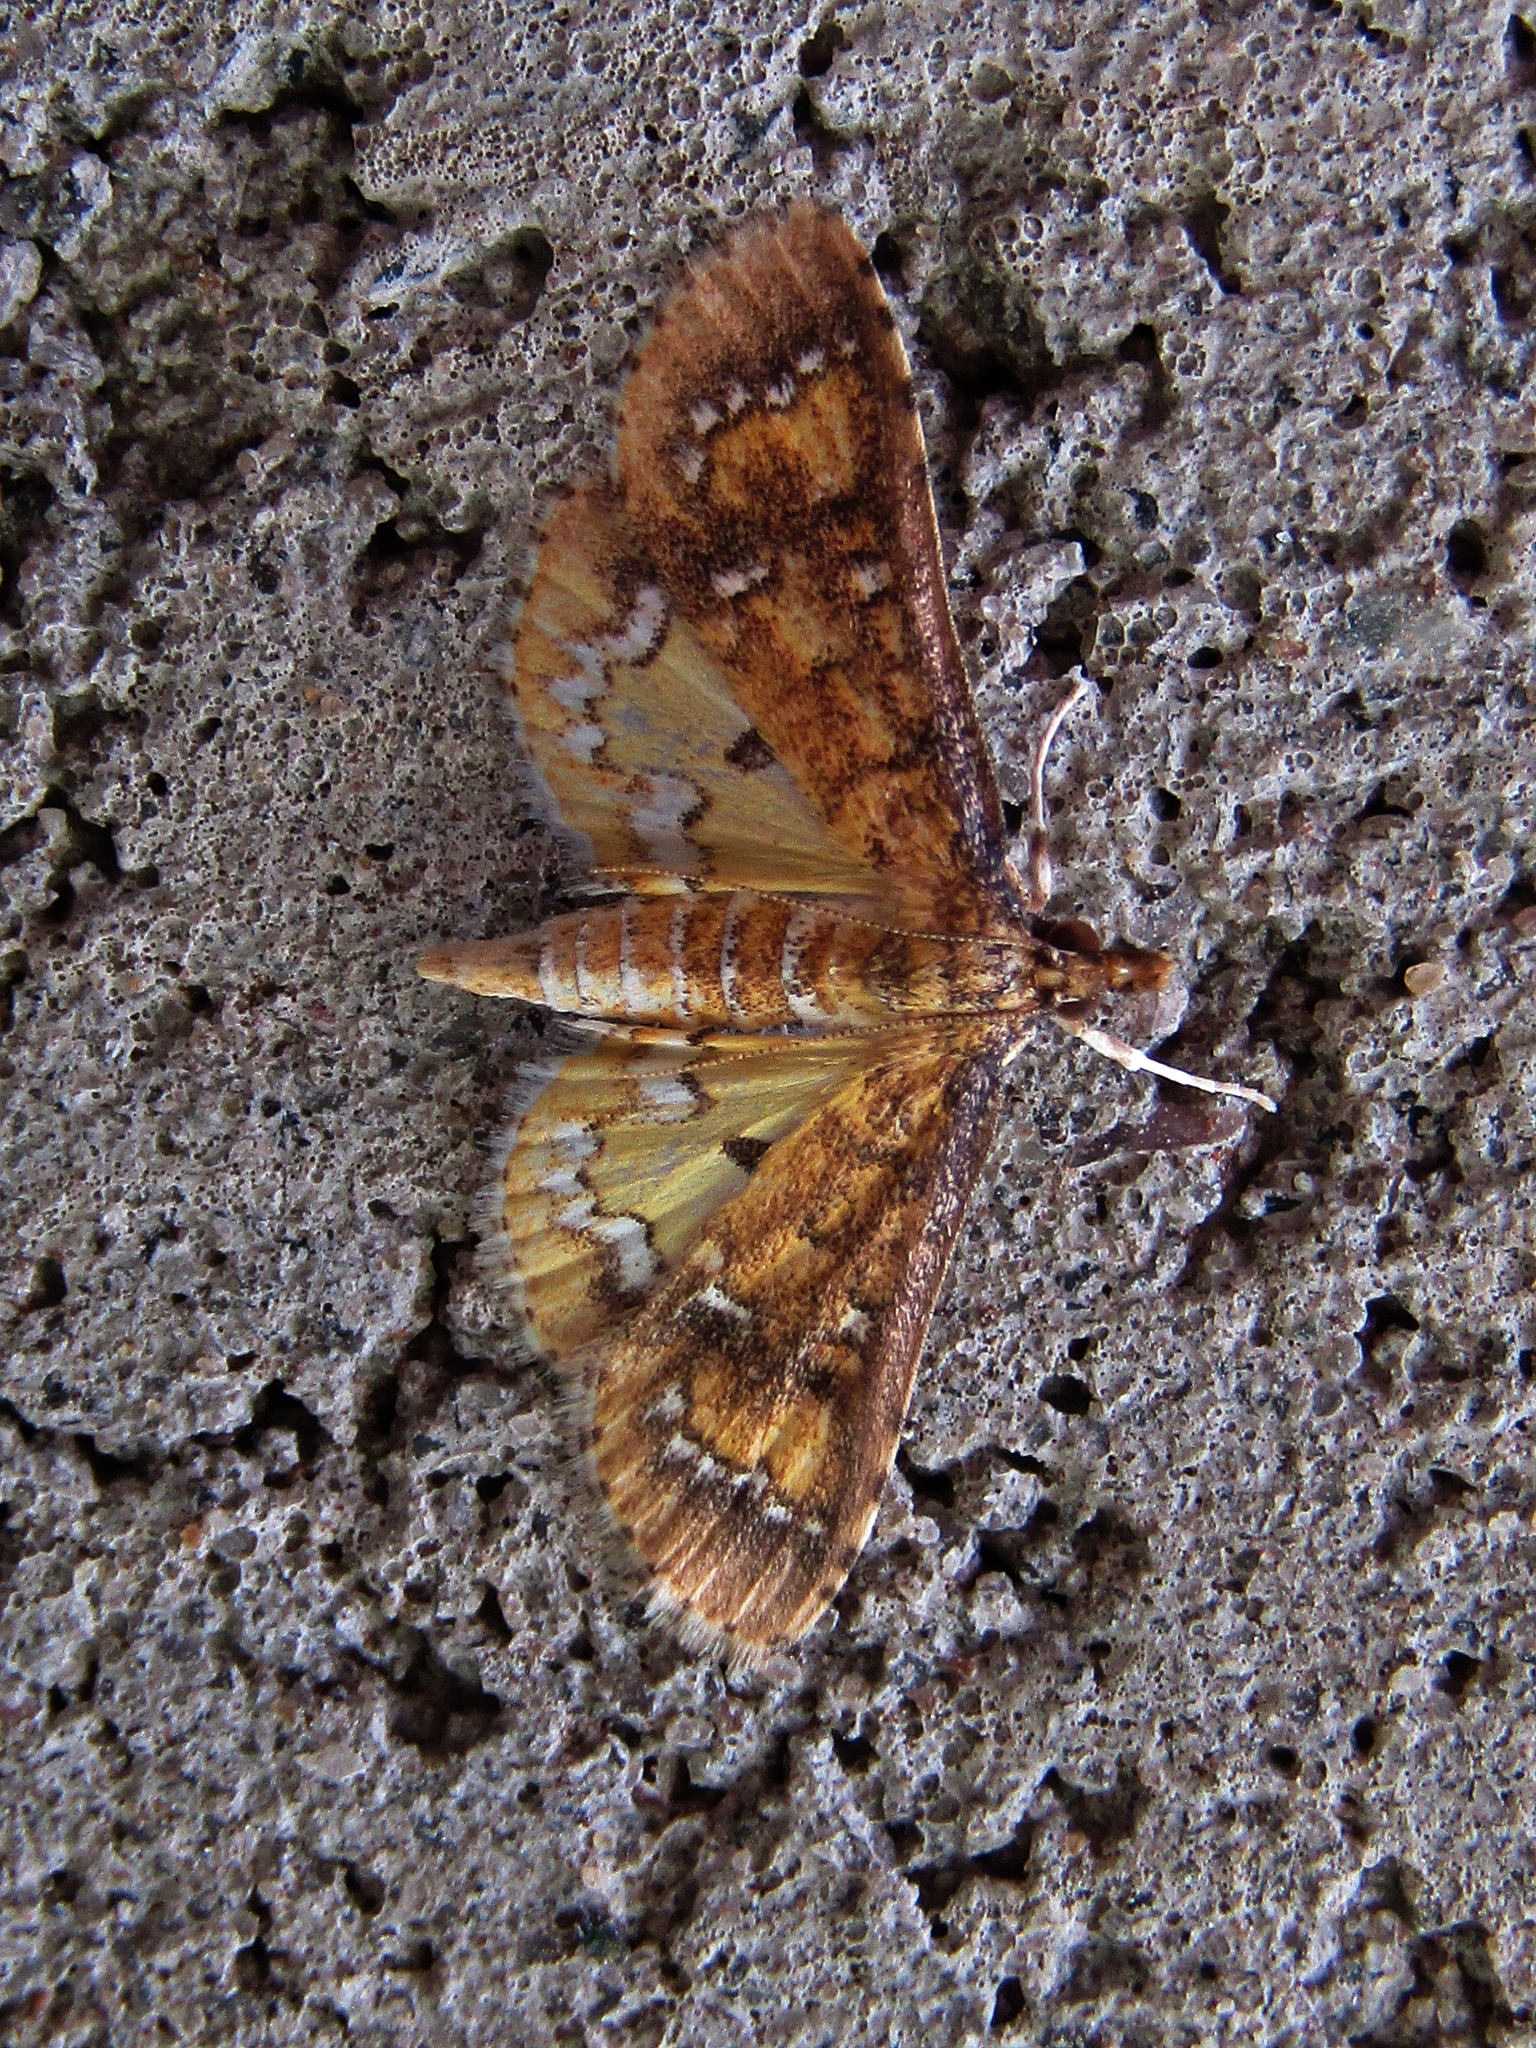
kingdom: Animalia
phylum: Arthropoda
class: Insecta
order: Lepidoptera
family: Crambidae
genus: Niphograpta
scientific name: Niphograpta albiguttalis
